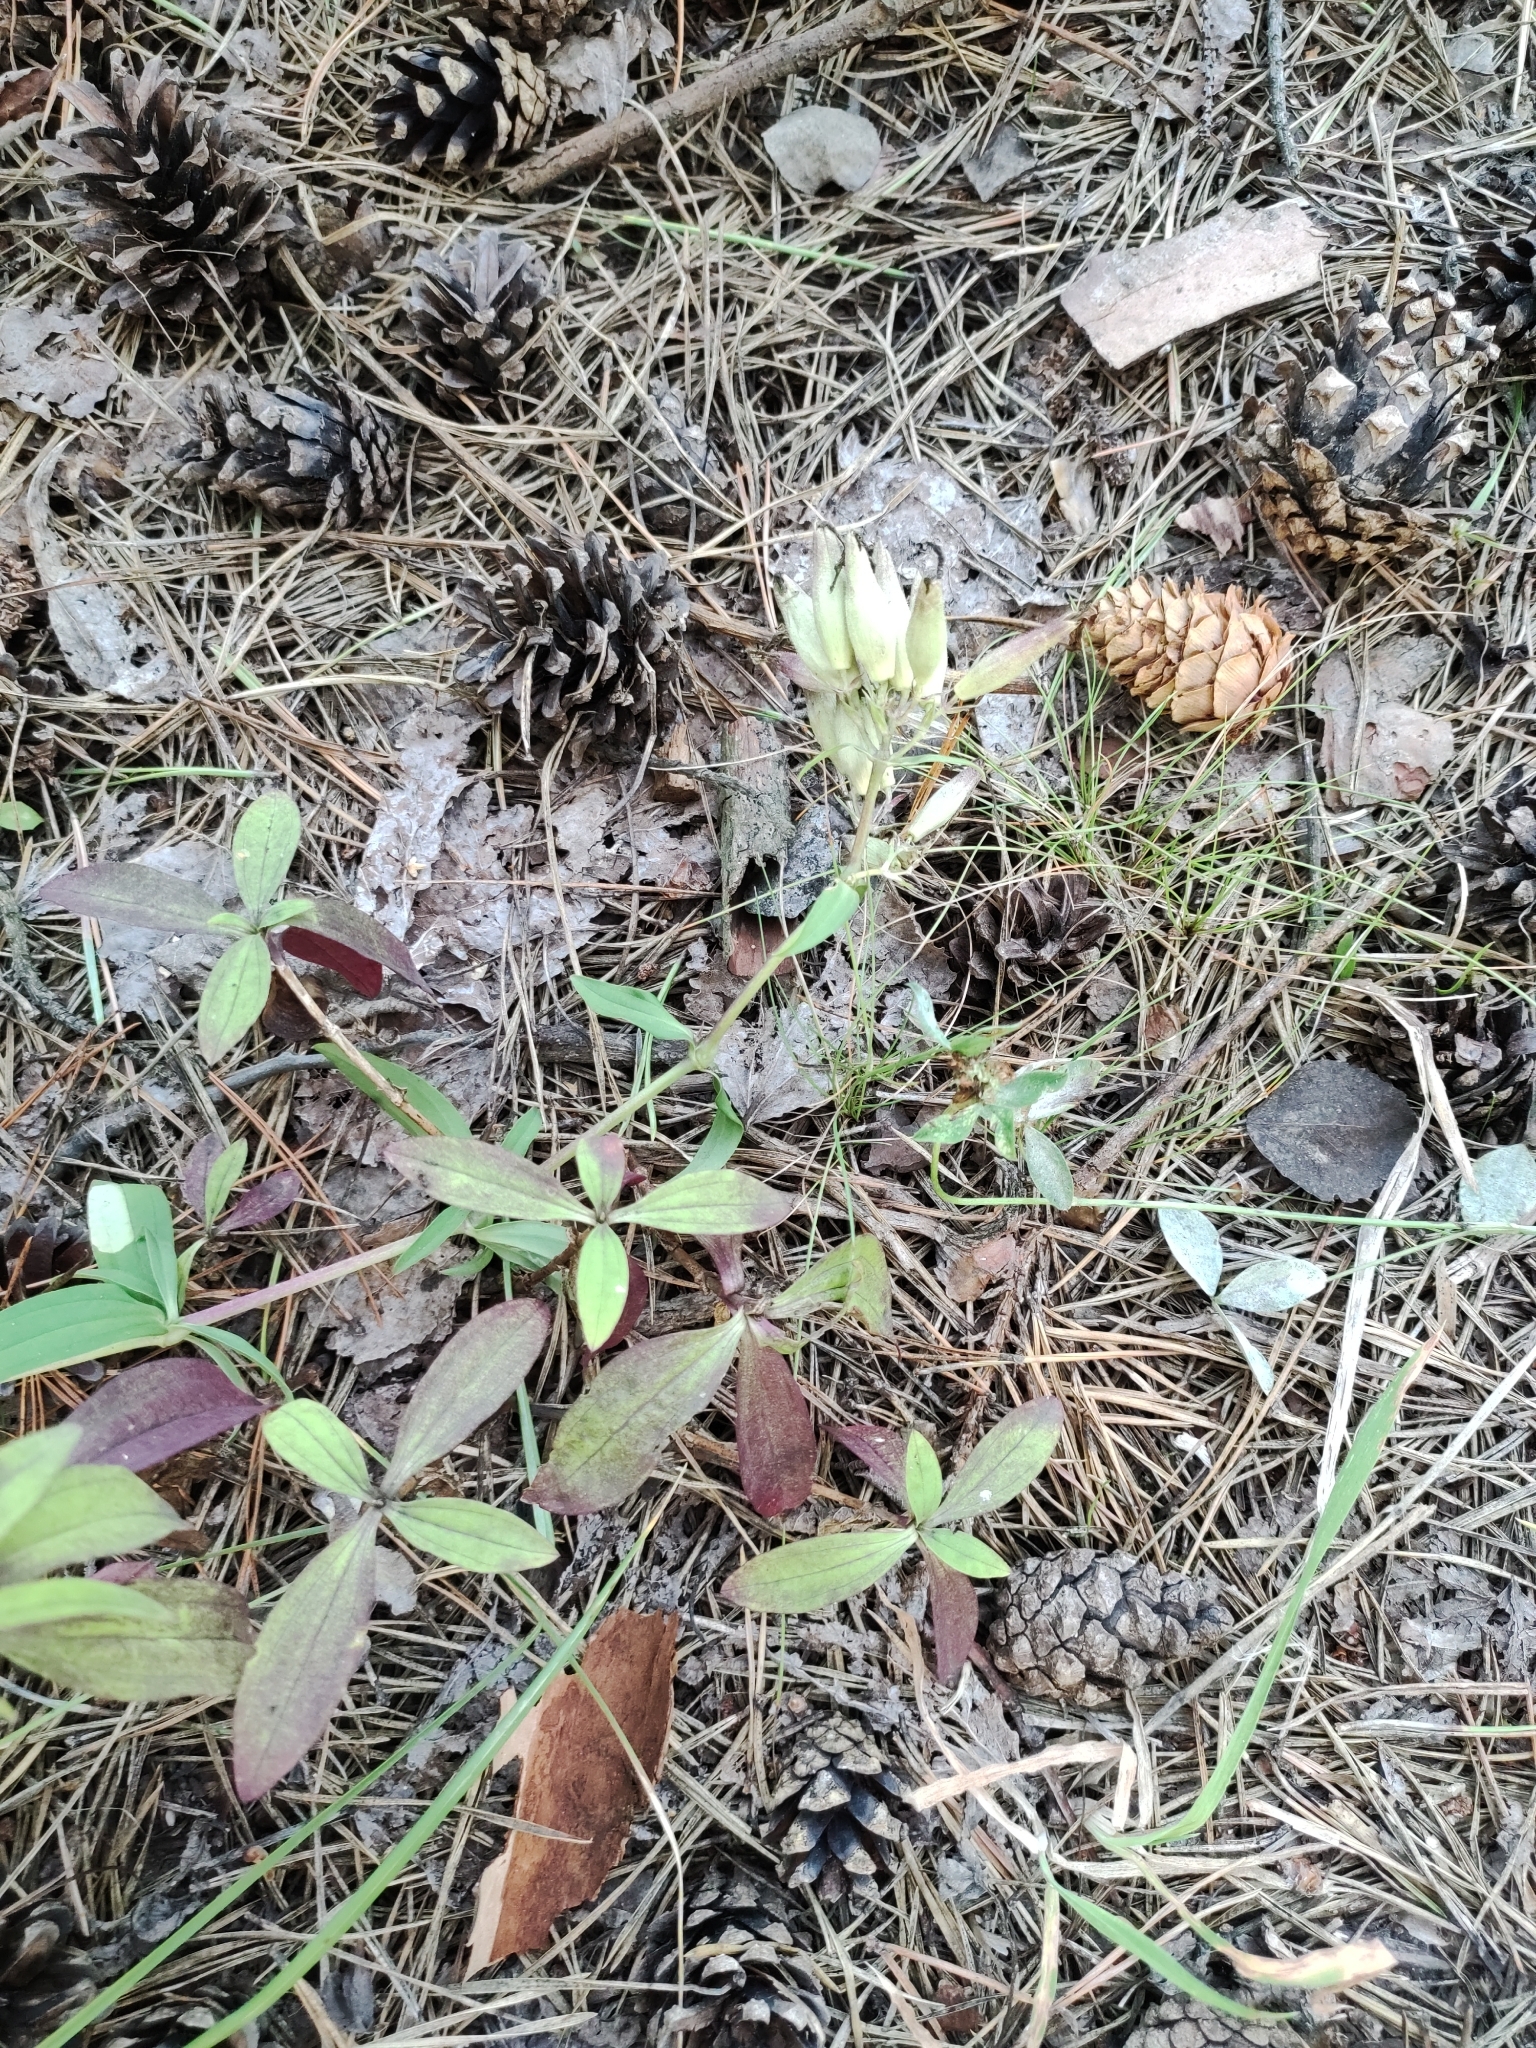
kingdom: Plantae
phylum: Tracheophyta
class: Magnoliopsida
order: Caryophyllales
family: Caryophyllaceae
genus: Saponaria
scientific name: Saponaria officinalis
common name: Soapwort
